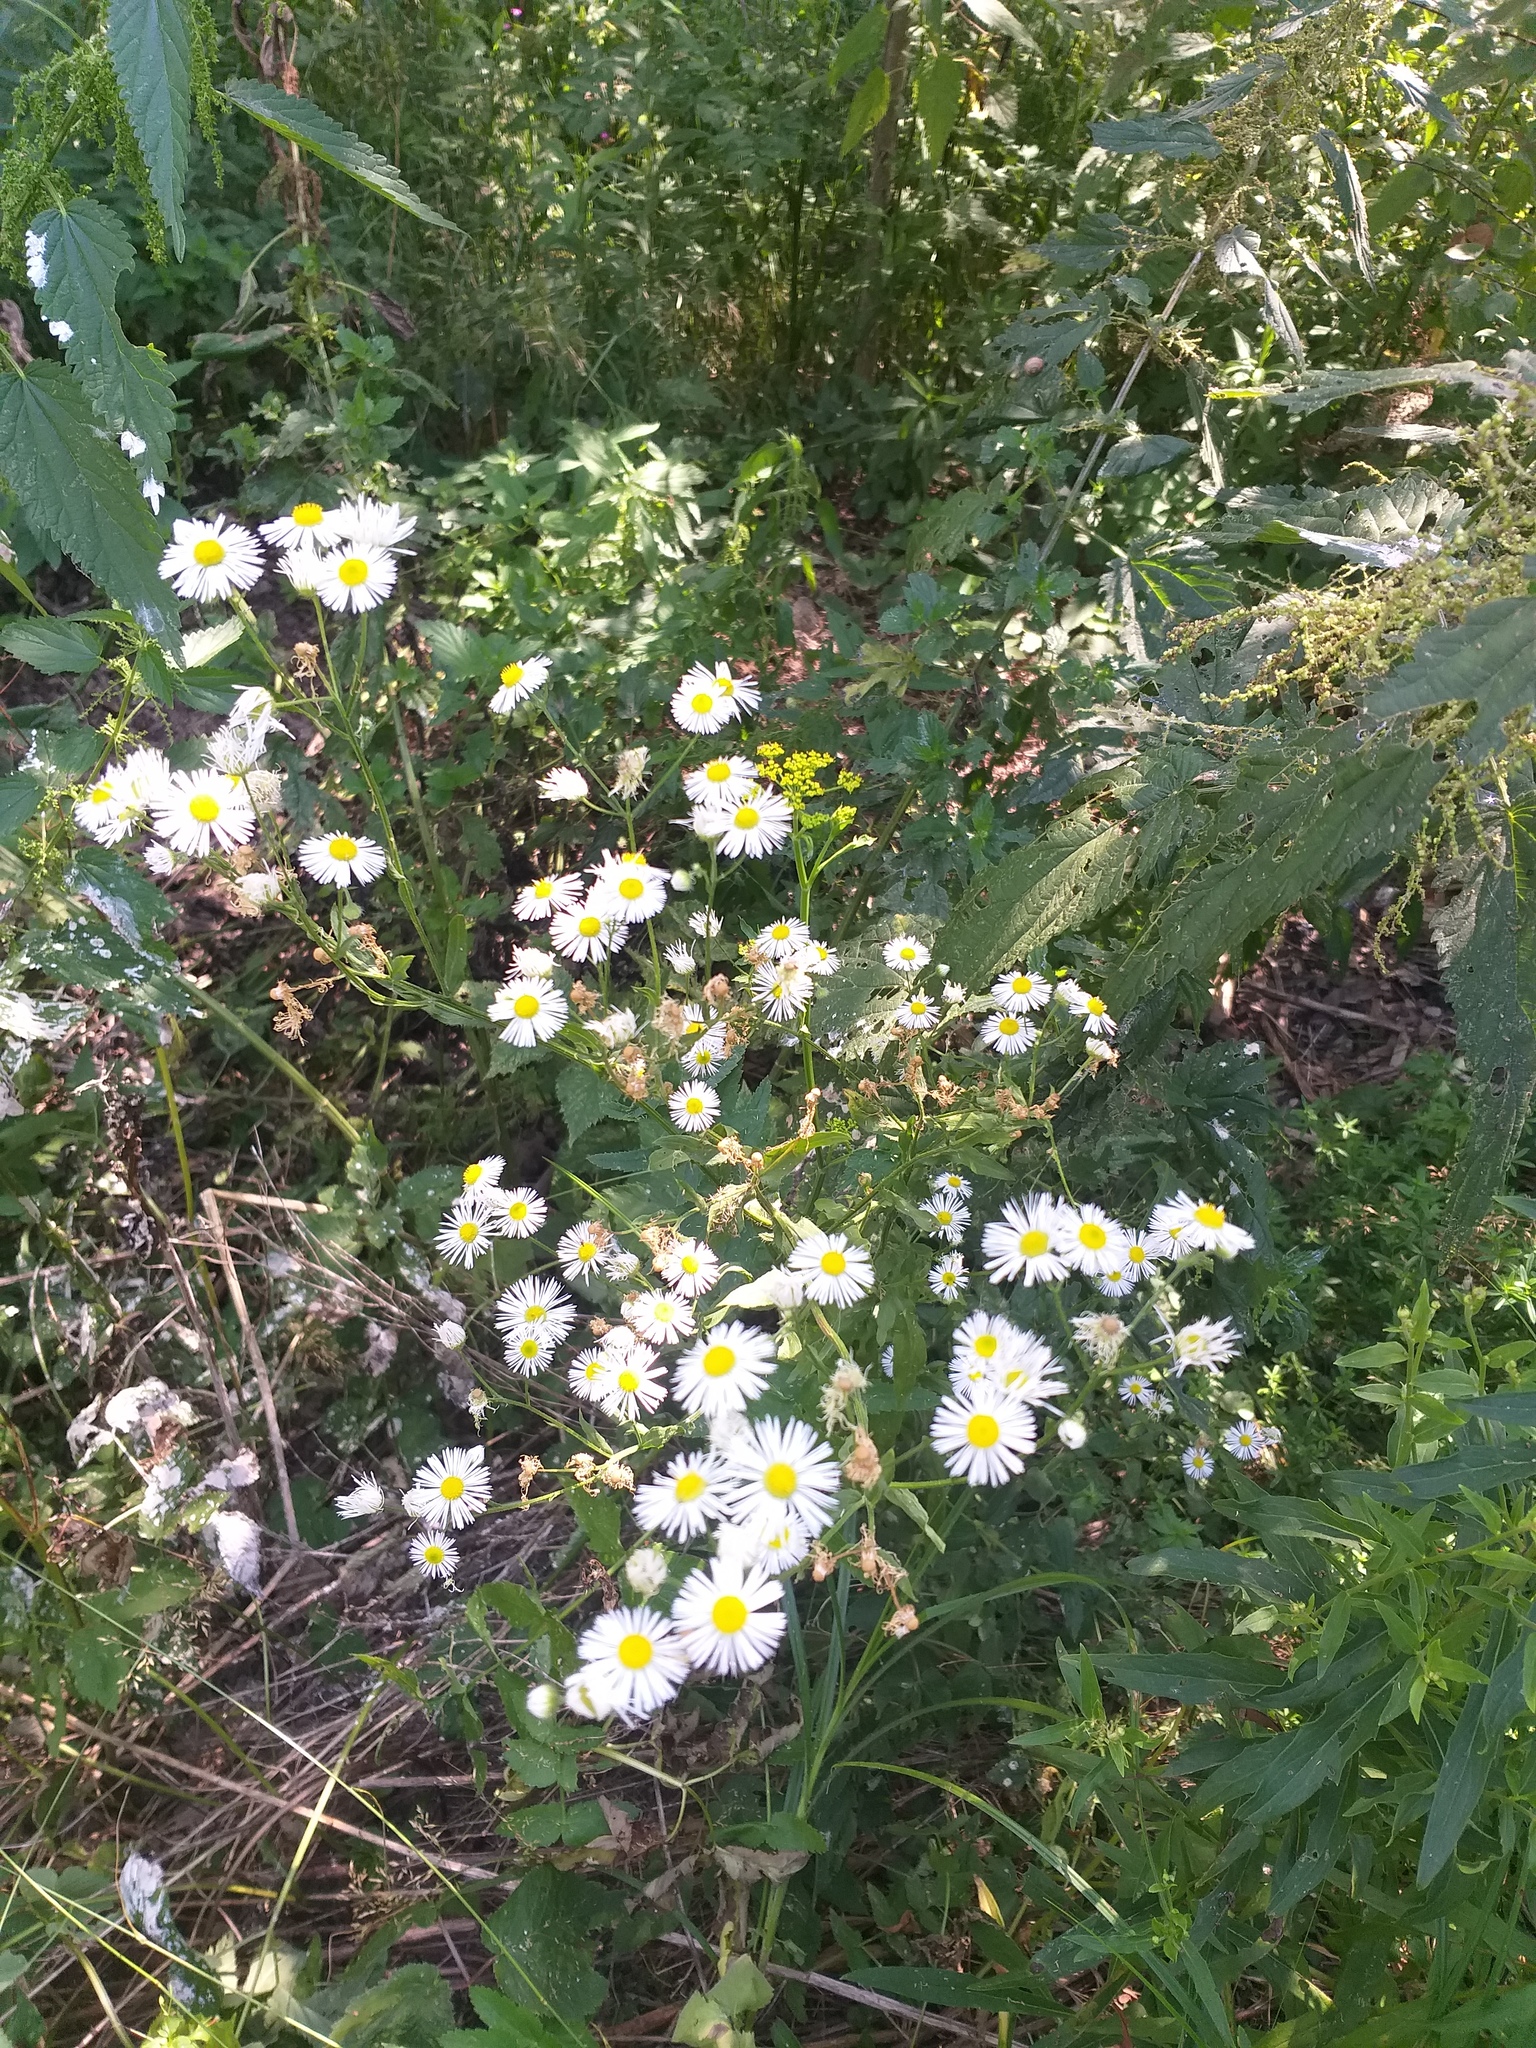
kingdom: Plantae
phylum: Tracheophyta
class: Magnoliopsida
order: Asterales
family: Asteraceae
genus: Erigeron
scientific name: Erigeron annuus
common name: Tall fleabane
